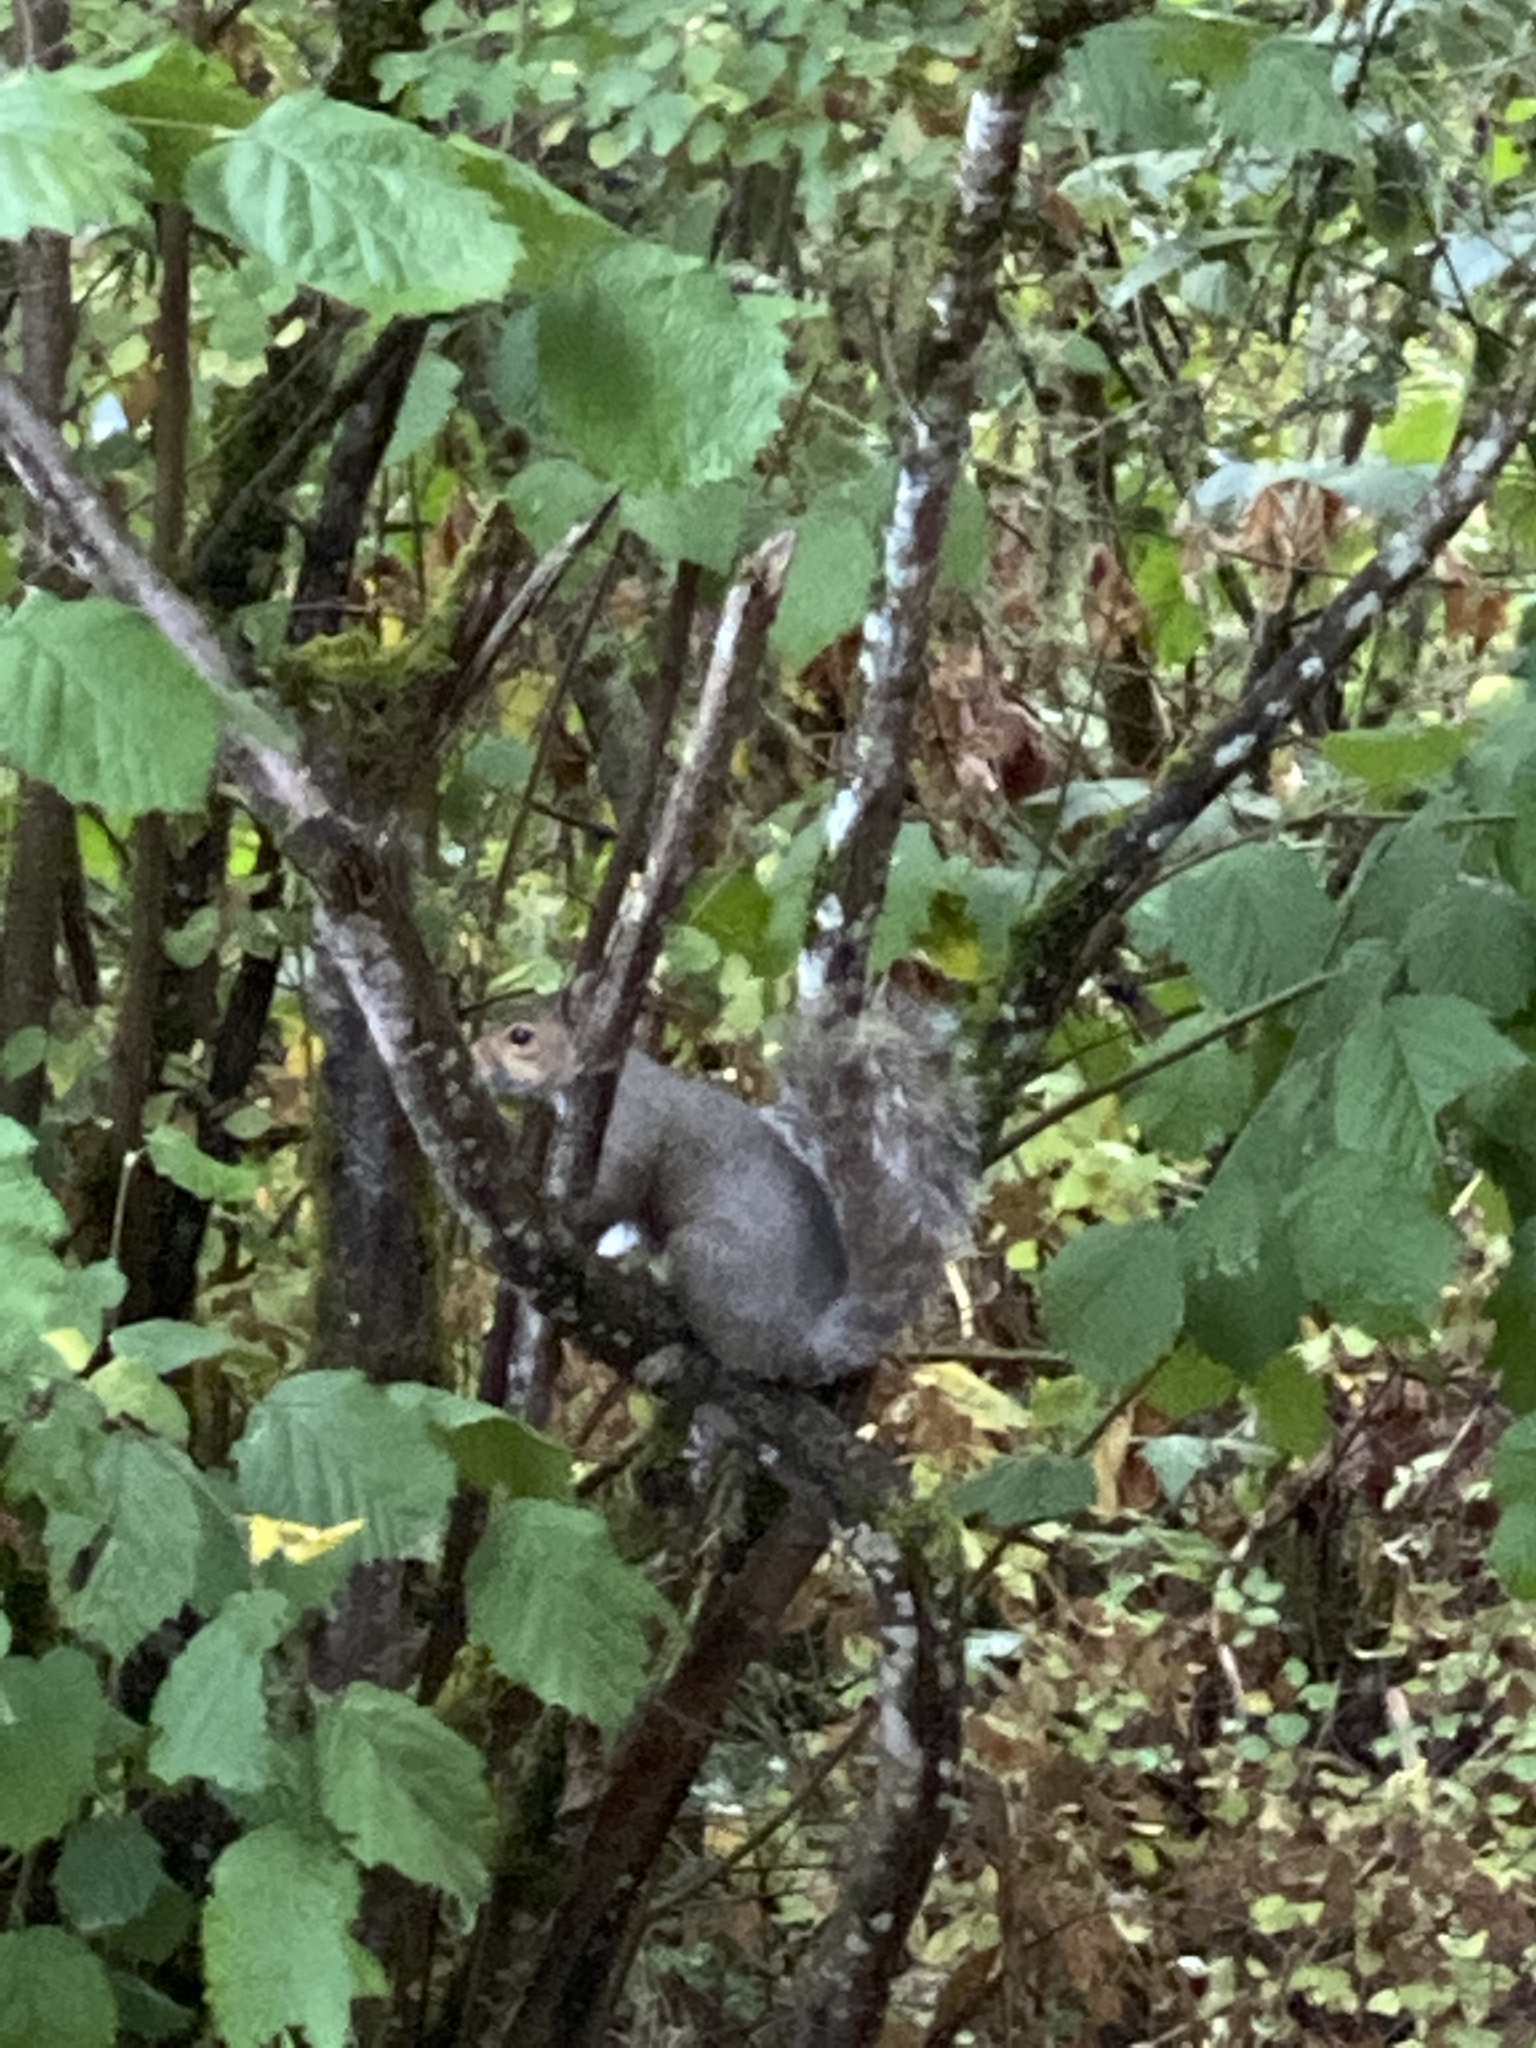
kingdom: Animalia
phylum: Chordata
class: Mammalia
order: Rodentia
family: Sciuridae
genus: Sciurus
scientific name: Sciurus carolinensis
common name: Eastern gray squirrel
